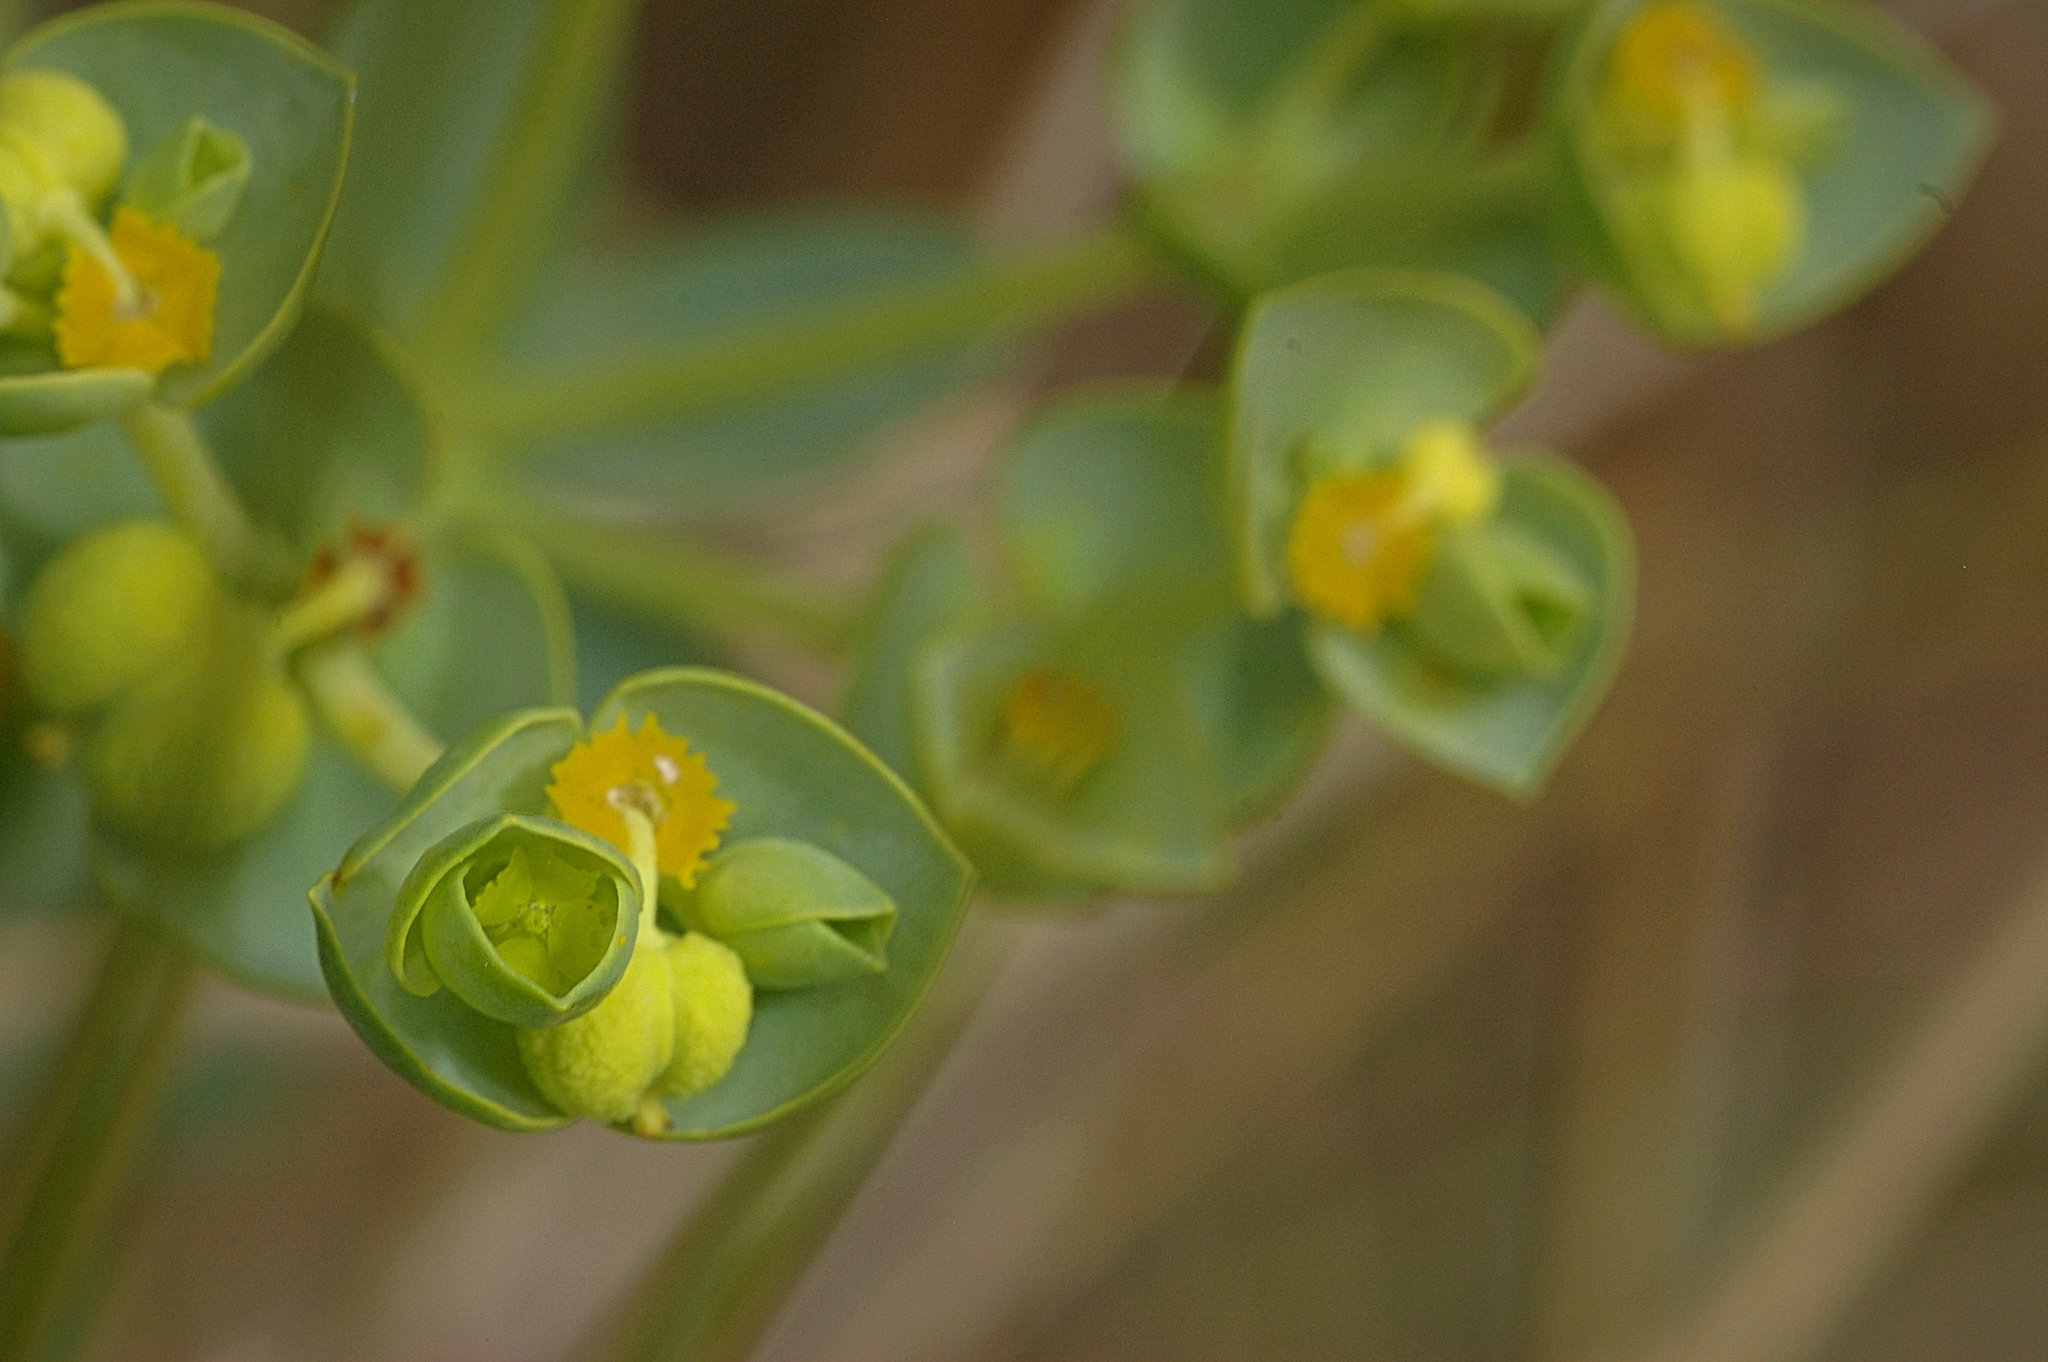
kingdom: Plantae
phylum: Tracheophyta
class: Magnoliopsida
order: Malpighiales
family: Euphorbiaceae
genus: Euphorbia
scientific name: Euphorbia paralias
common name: Sea spurge
